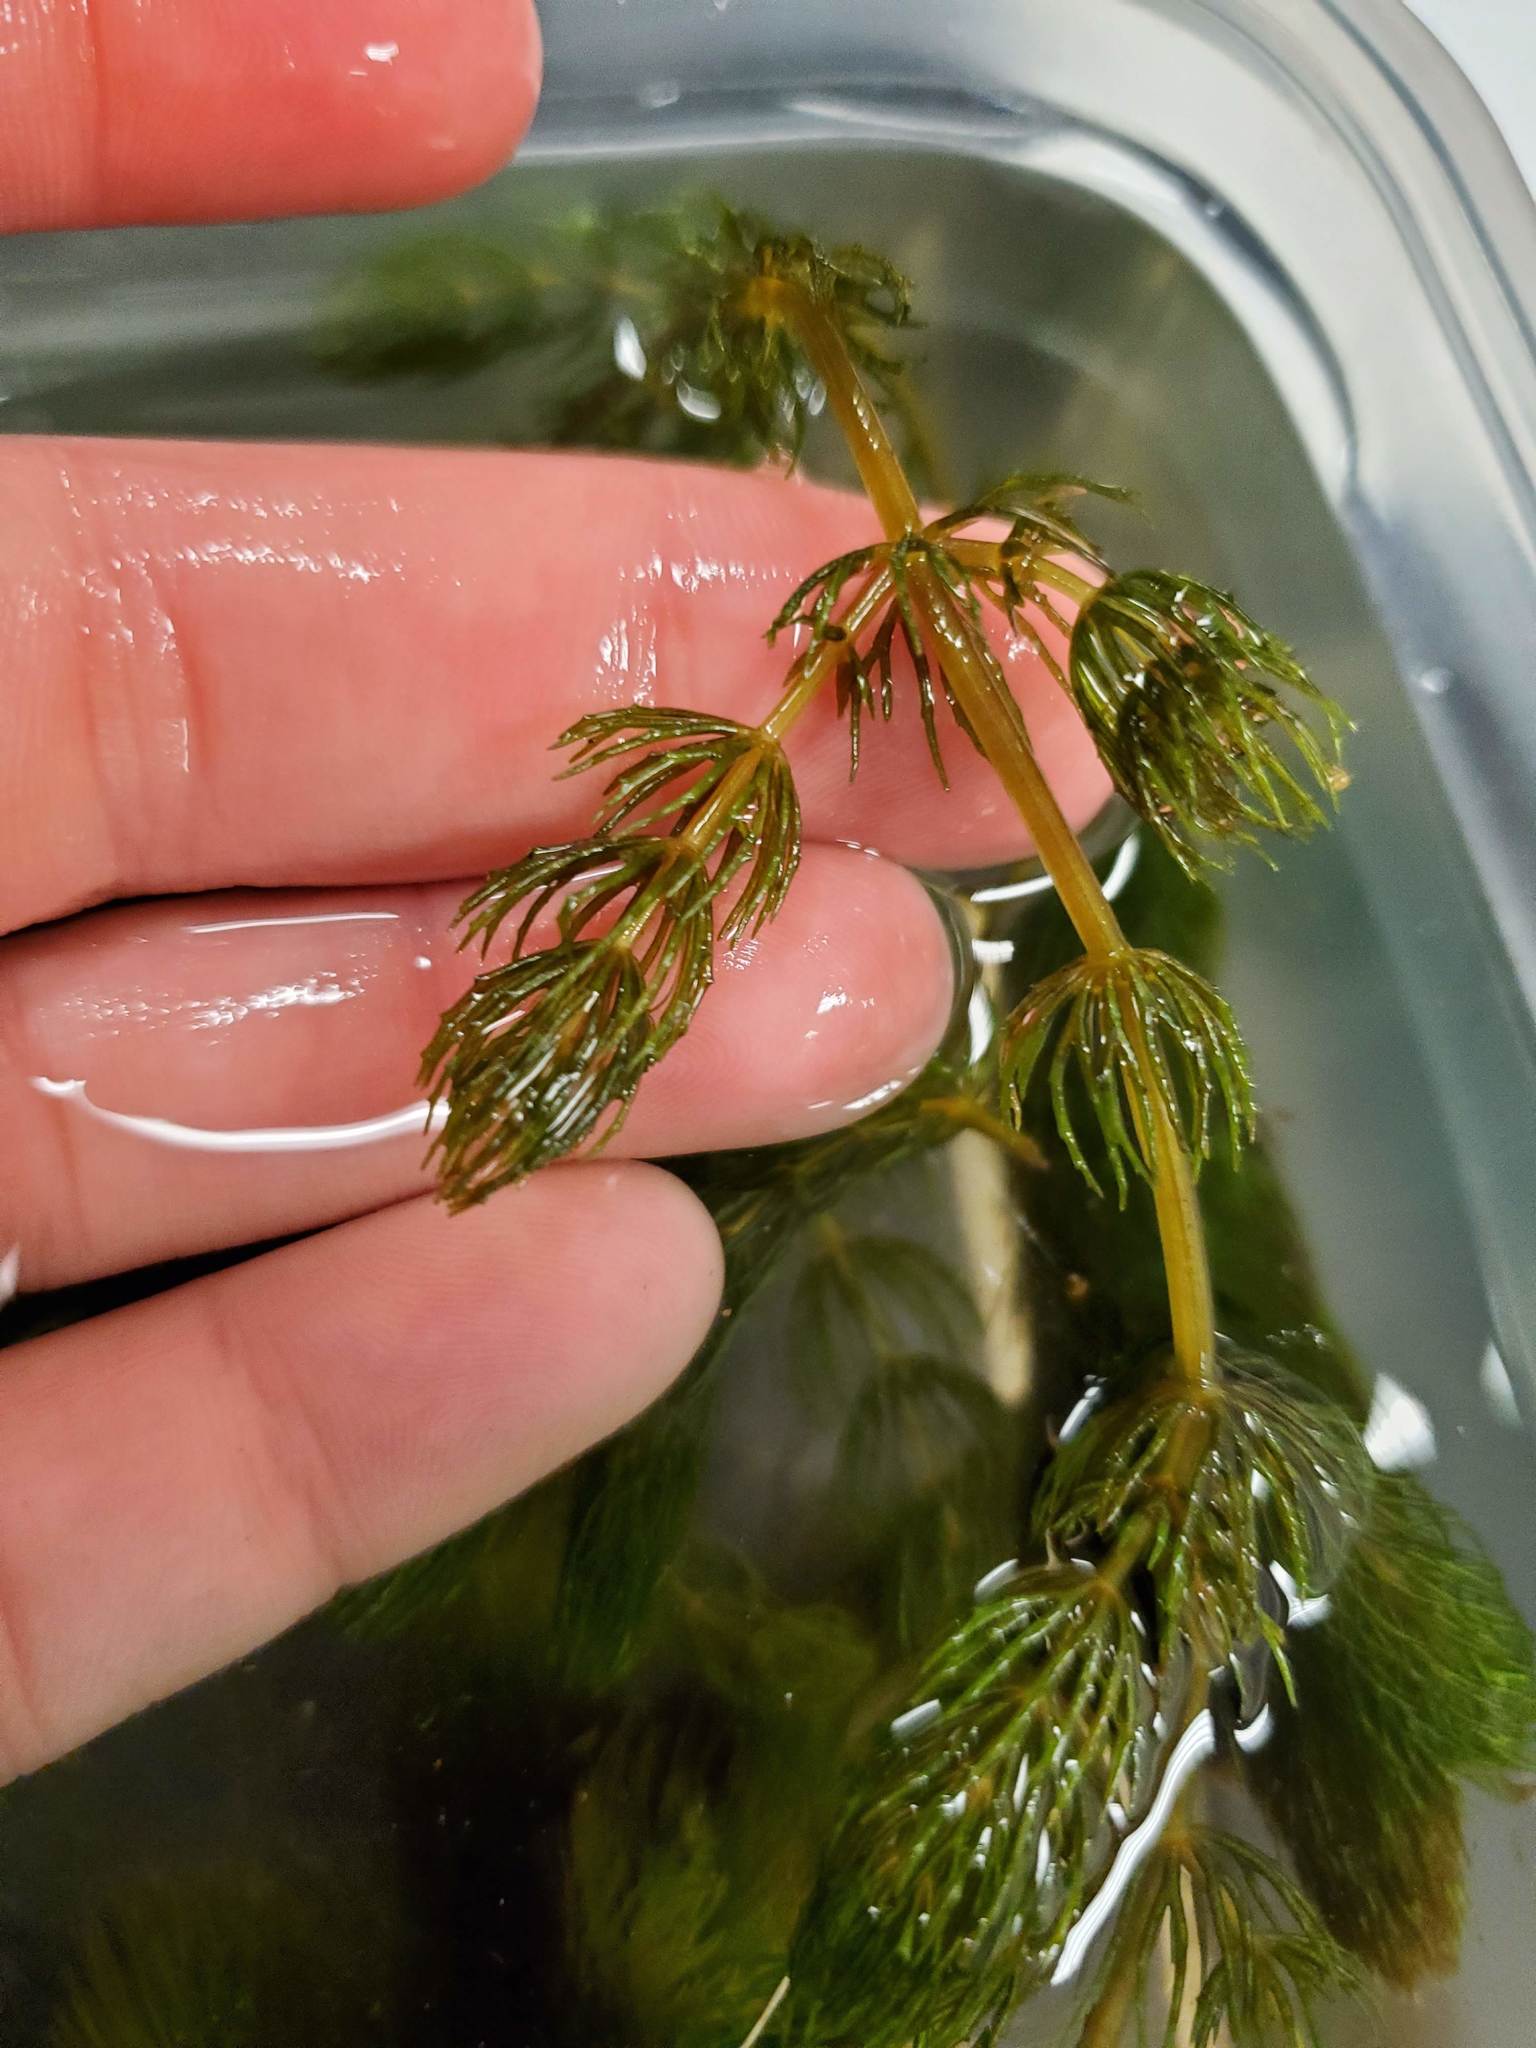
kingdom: Plantae
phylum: Tracheophyta
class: Magnoliopsida
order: Ceratophyllales
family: Ceratophyllaceae
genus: Ceratophyllum
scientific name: Ceratophyllum demersum
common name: Rigid hornwort
